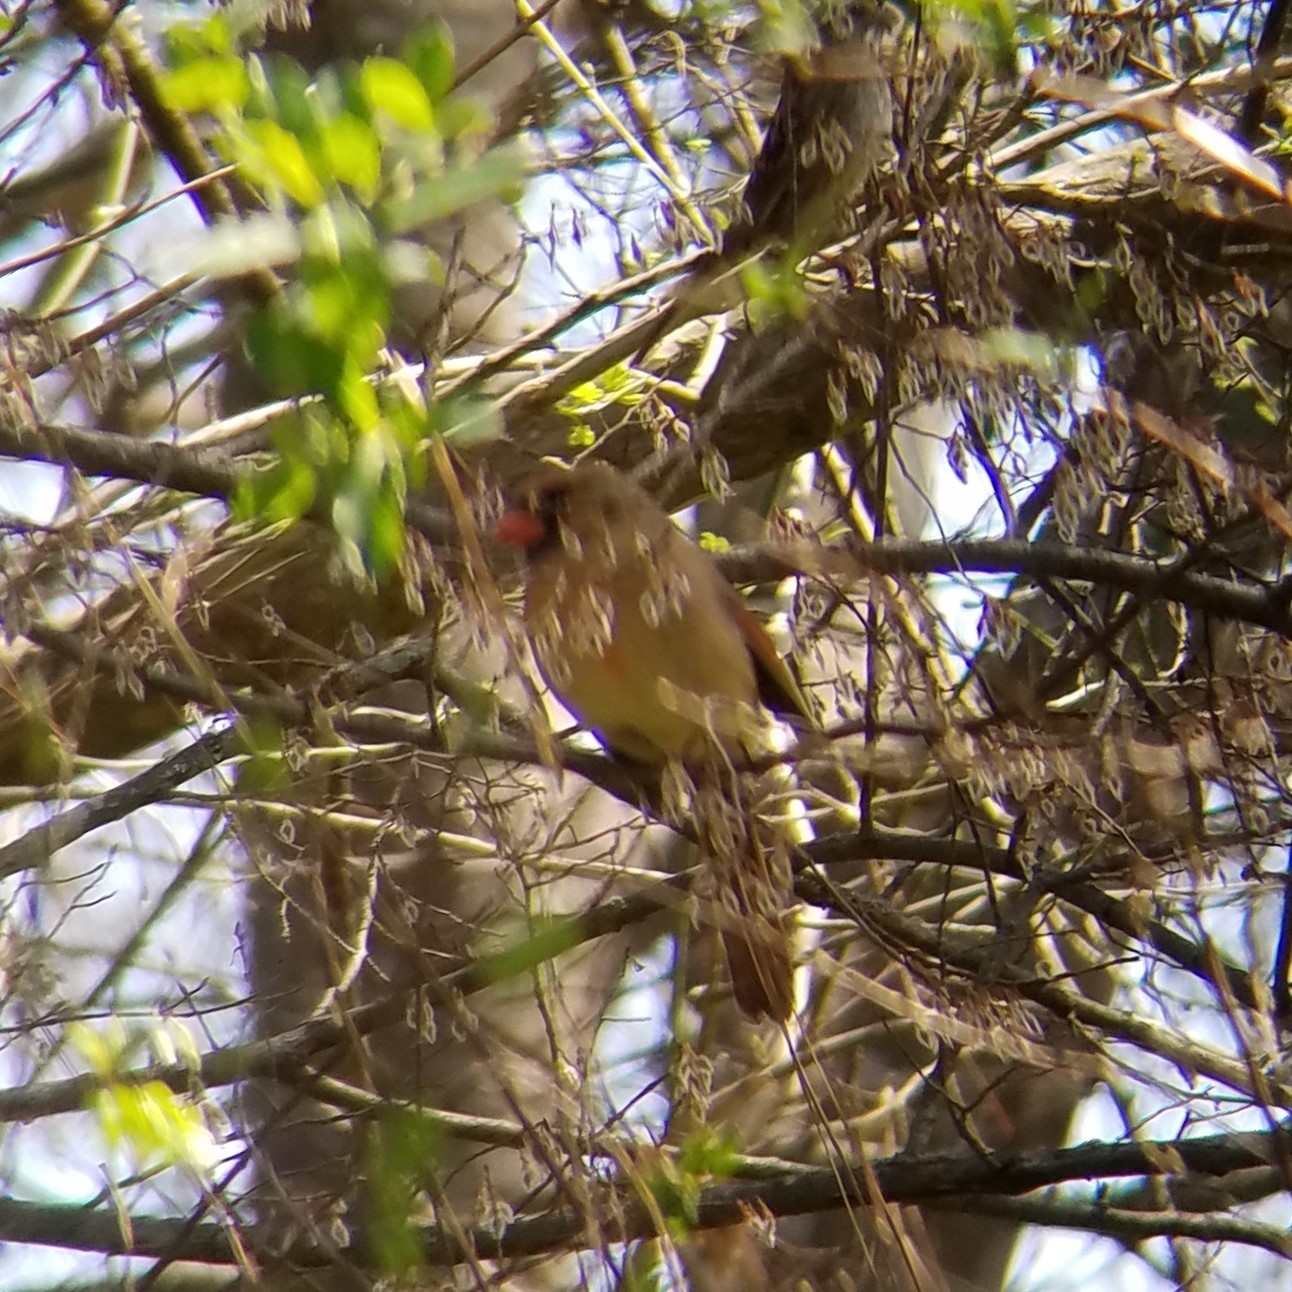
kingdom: Animalia
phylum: Chordata
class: Aves
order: Passeriformes
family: Cardinalidae
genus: Cardinalis
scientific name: Cardinalis cardinalis
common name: Northern cardinal
